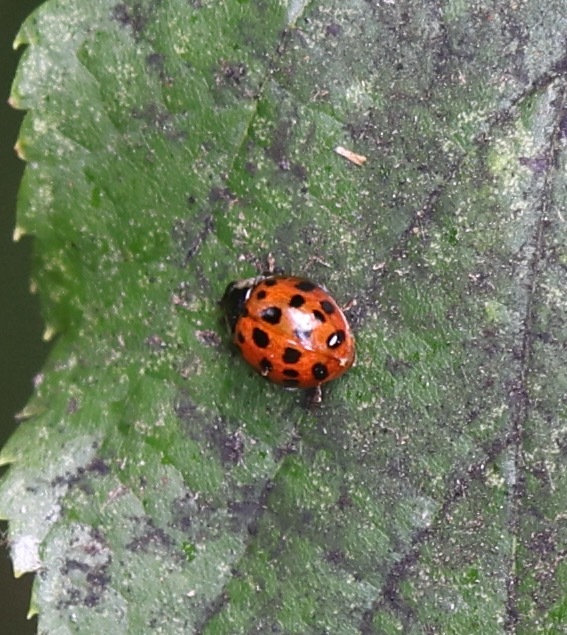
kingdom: Animalia
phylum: Arthropoda
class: Insecta
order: Coleoptera
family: Coccinellidae
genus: Harmonia
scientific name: Harmonia axyridis
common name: Harlequin ladybird
